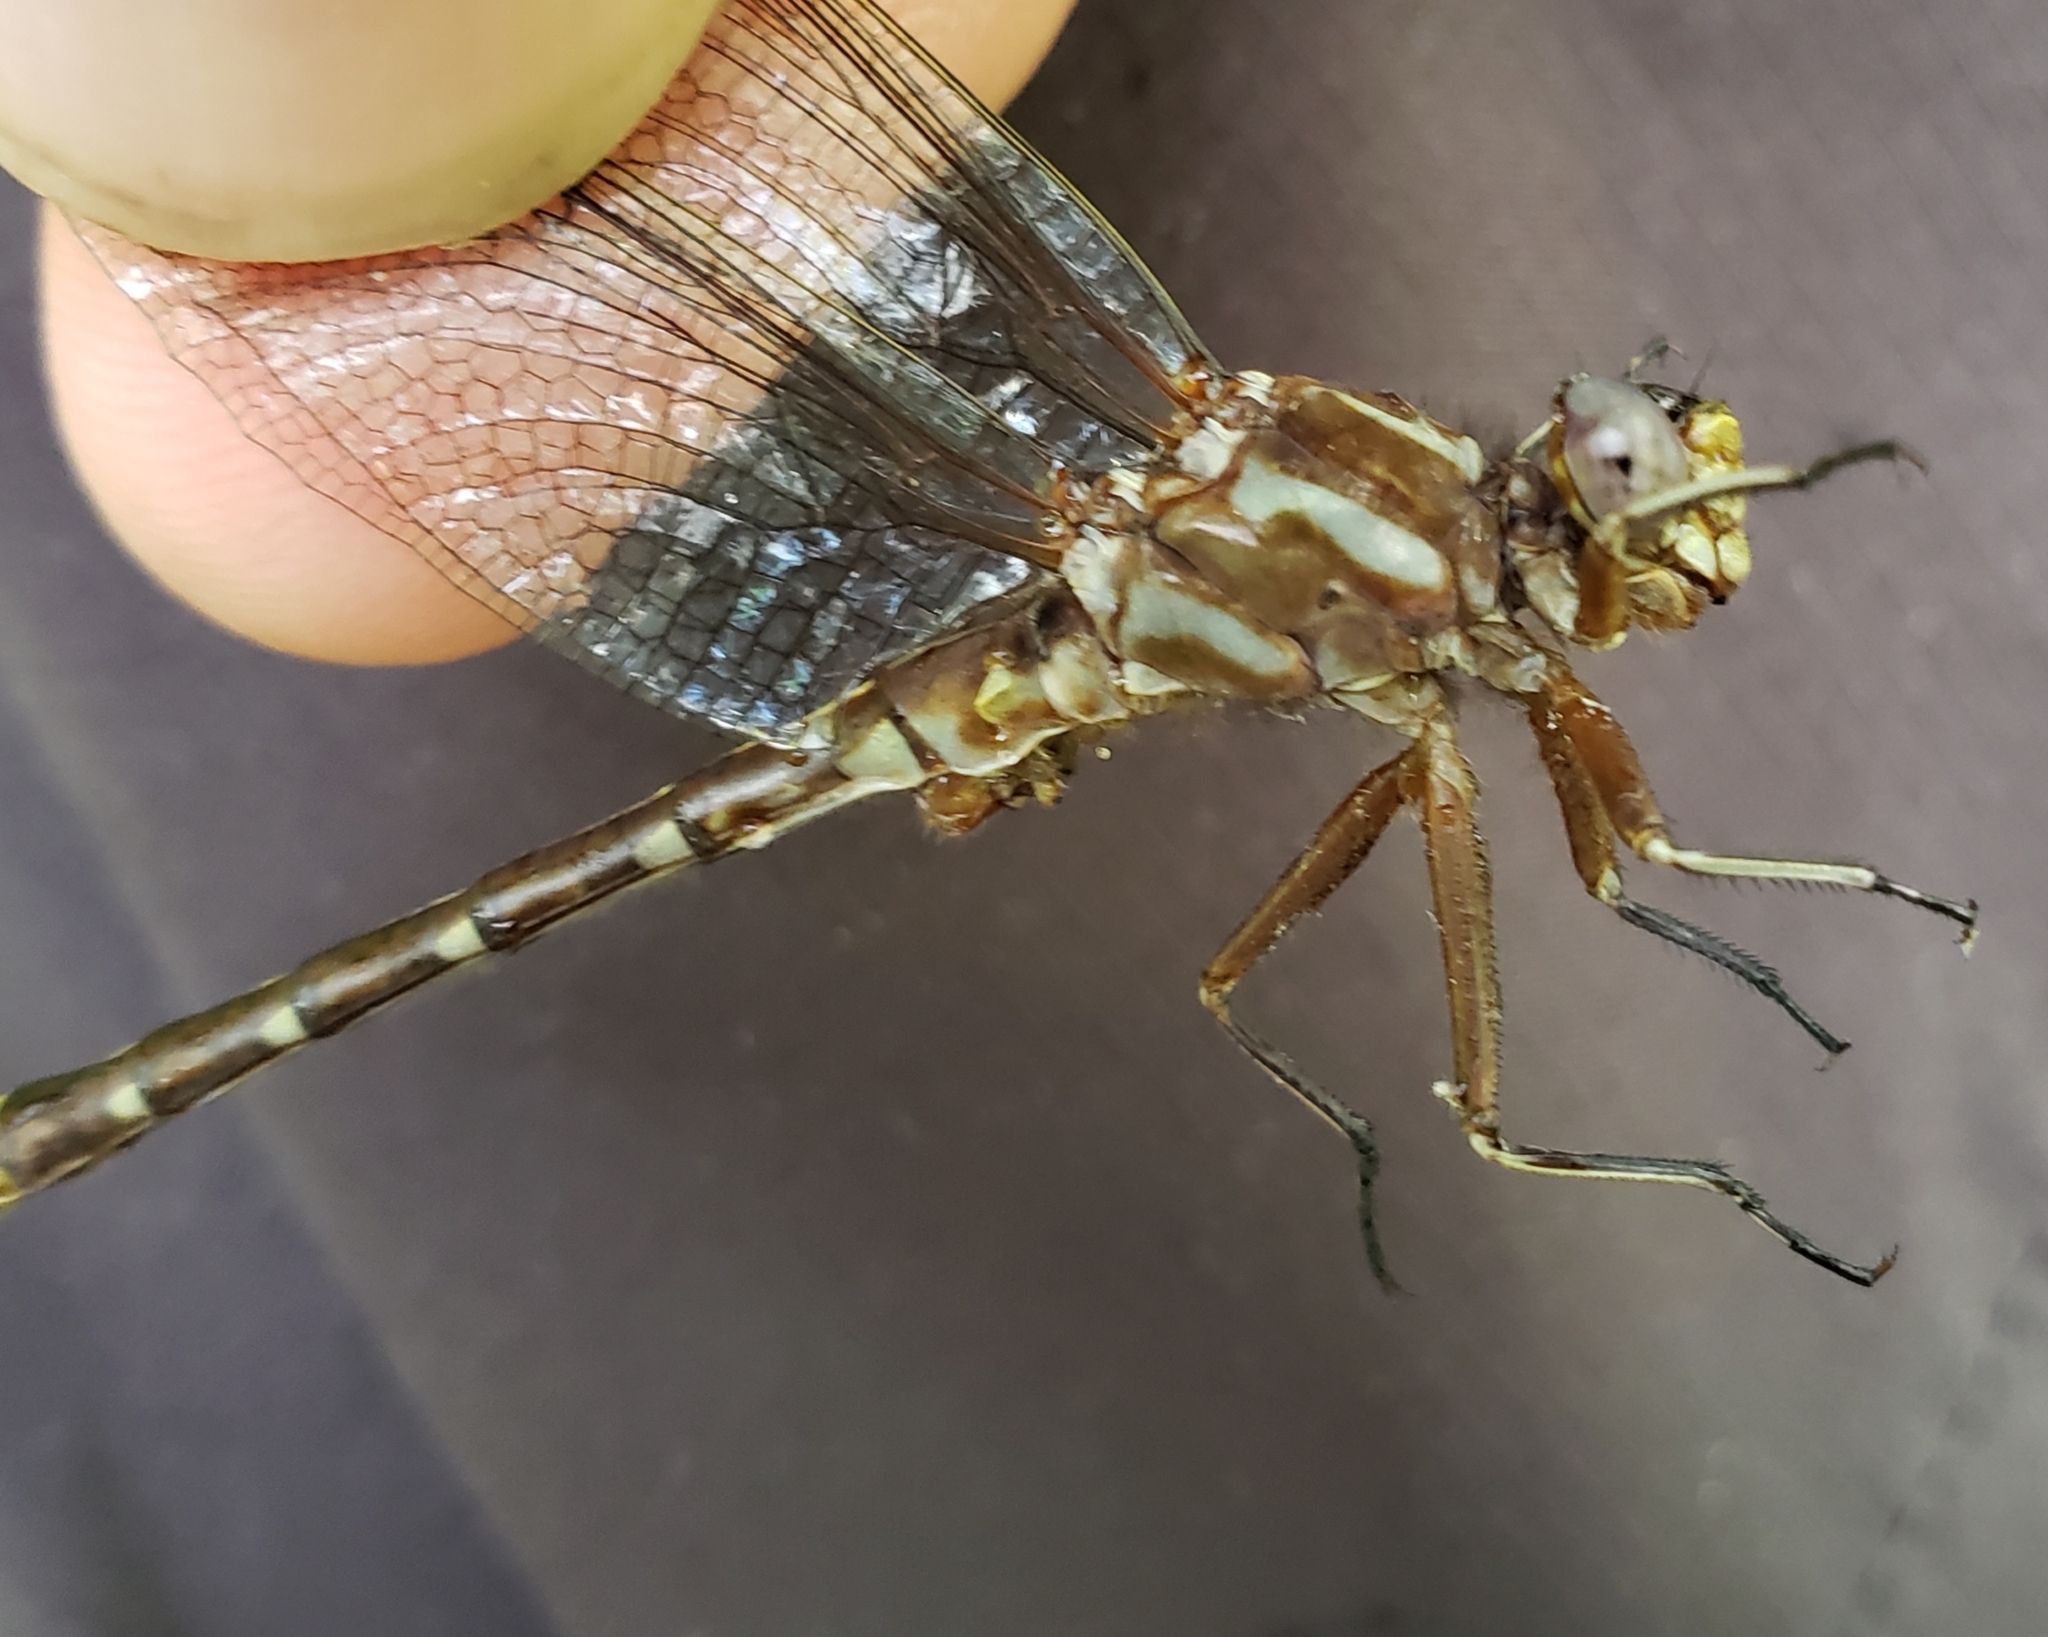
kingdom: Animalia
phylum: Arthropoda
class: Insecta
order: Odonata
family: Gomphidae
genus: Phanogomphus
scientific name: Phanogomphus lividus
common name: Ashy clubtail
